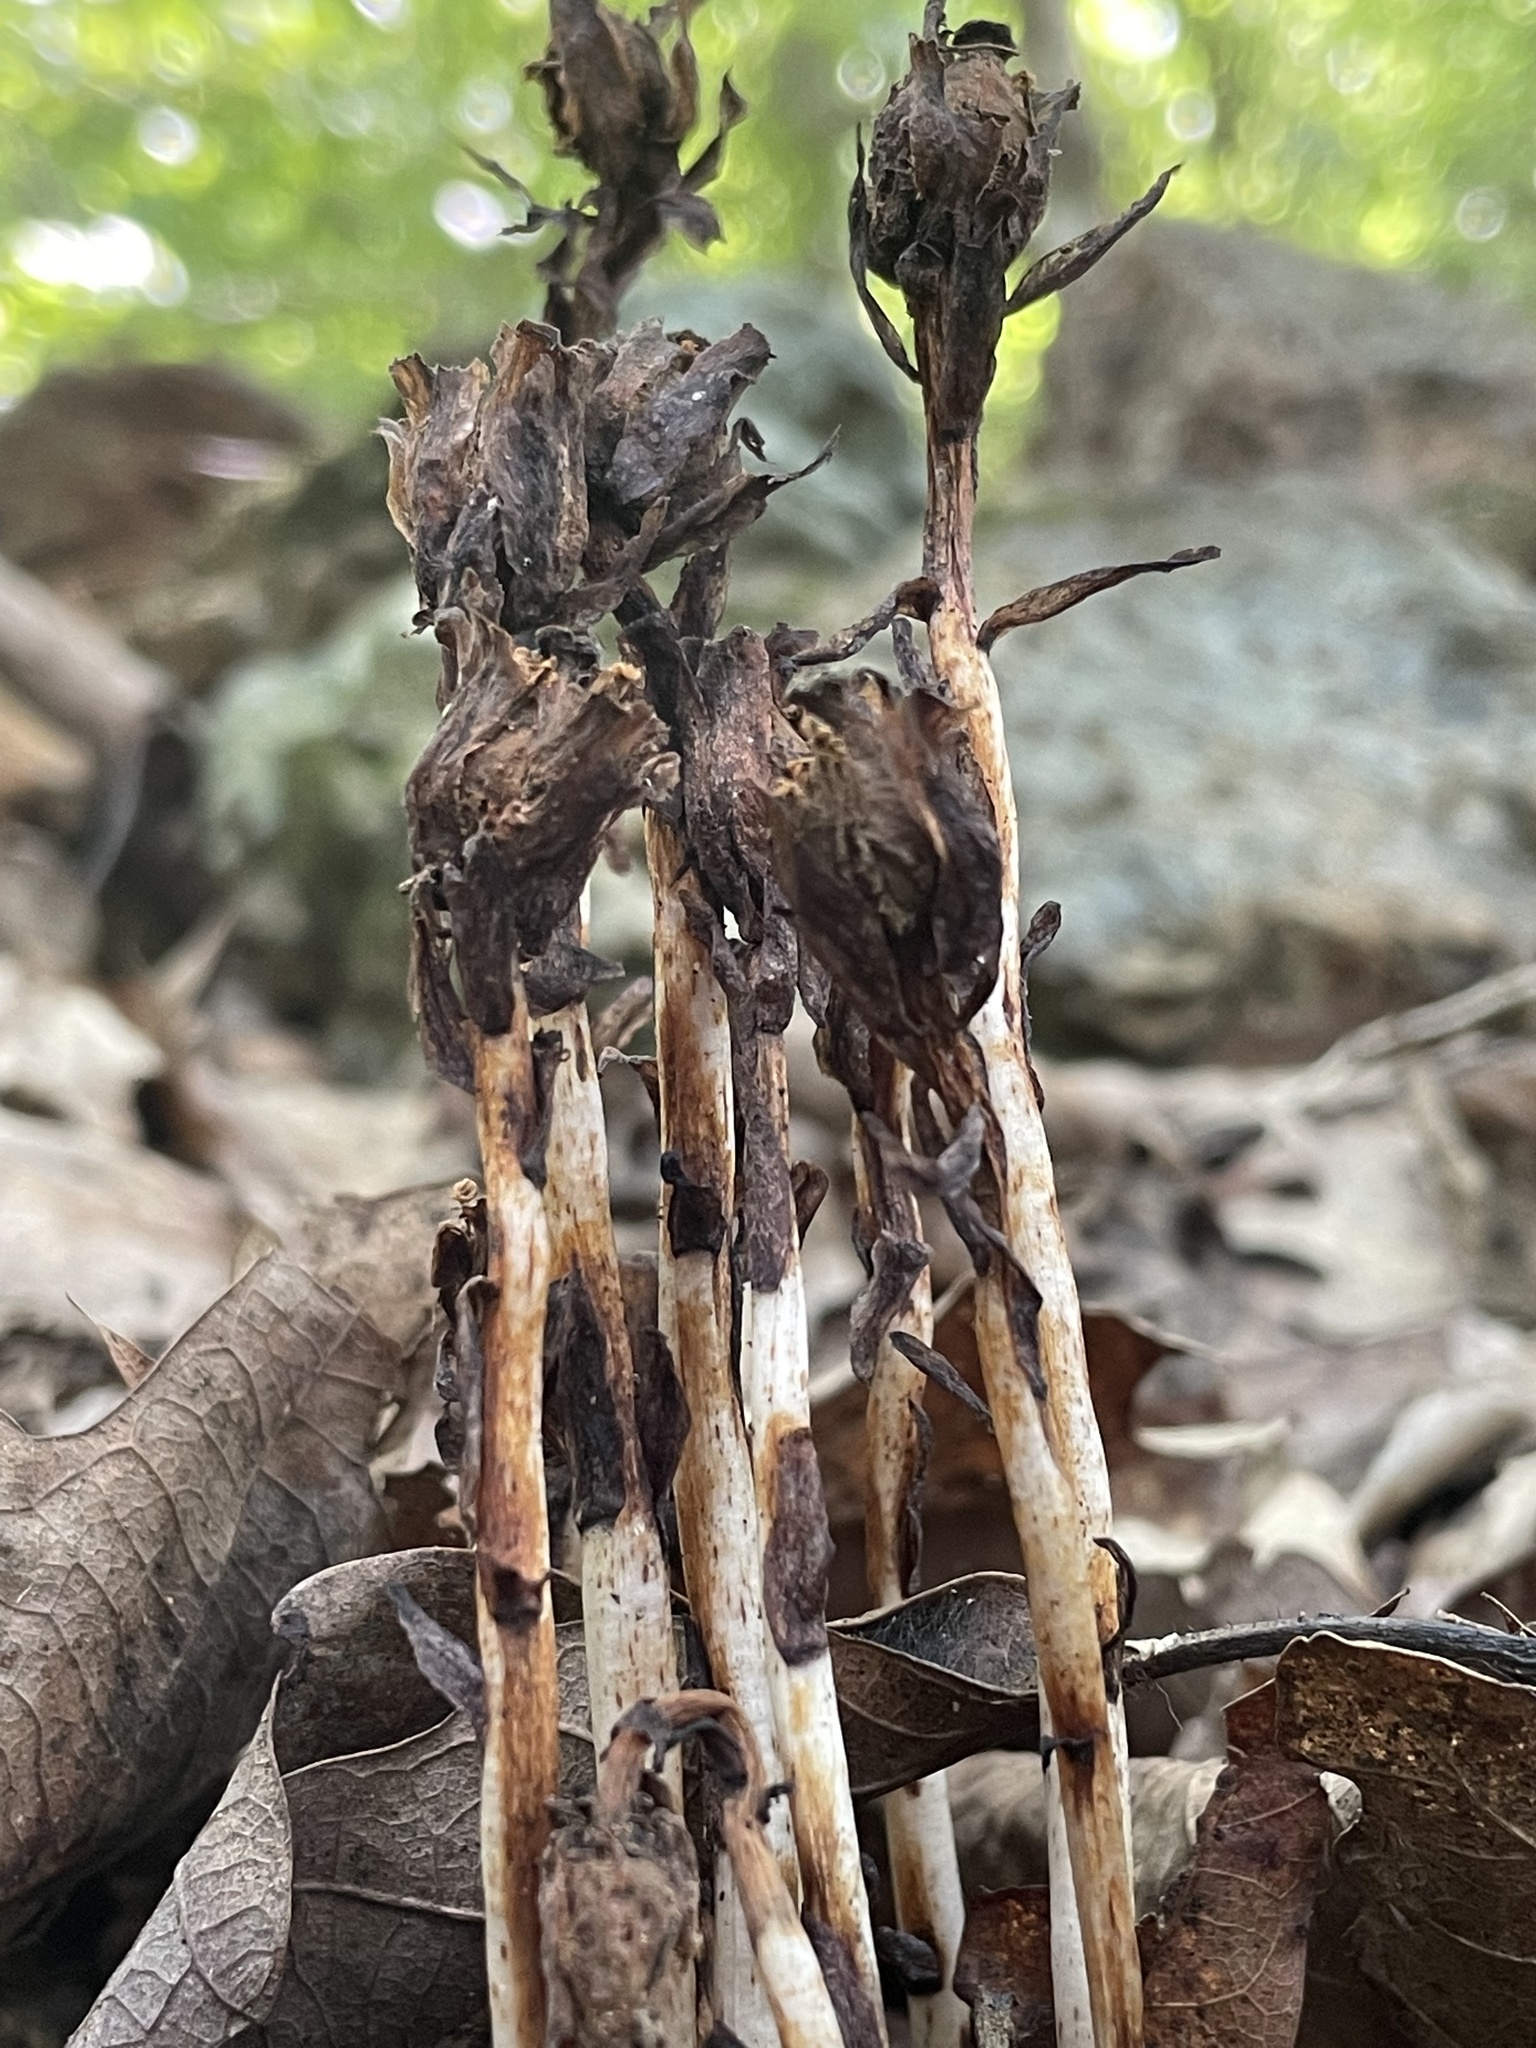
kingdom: Plantae
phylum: Tracheophyta
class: Magnoliopsida
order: Ericales
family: Ericaceae
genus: Monotropa
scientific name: Monotropa uniflora
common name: Convulsion root
